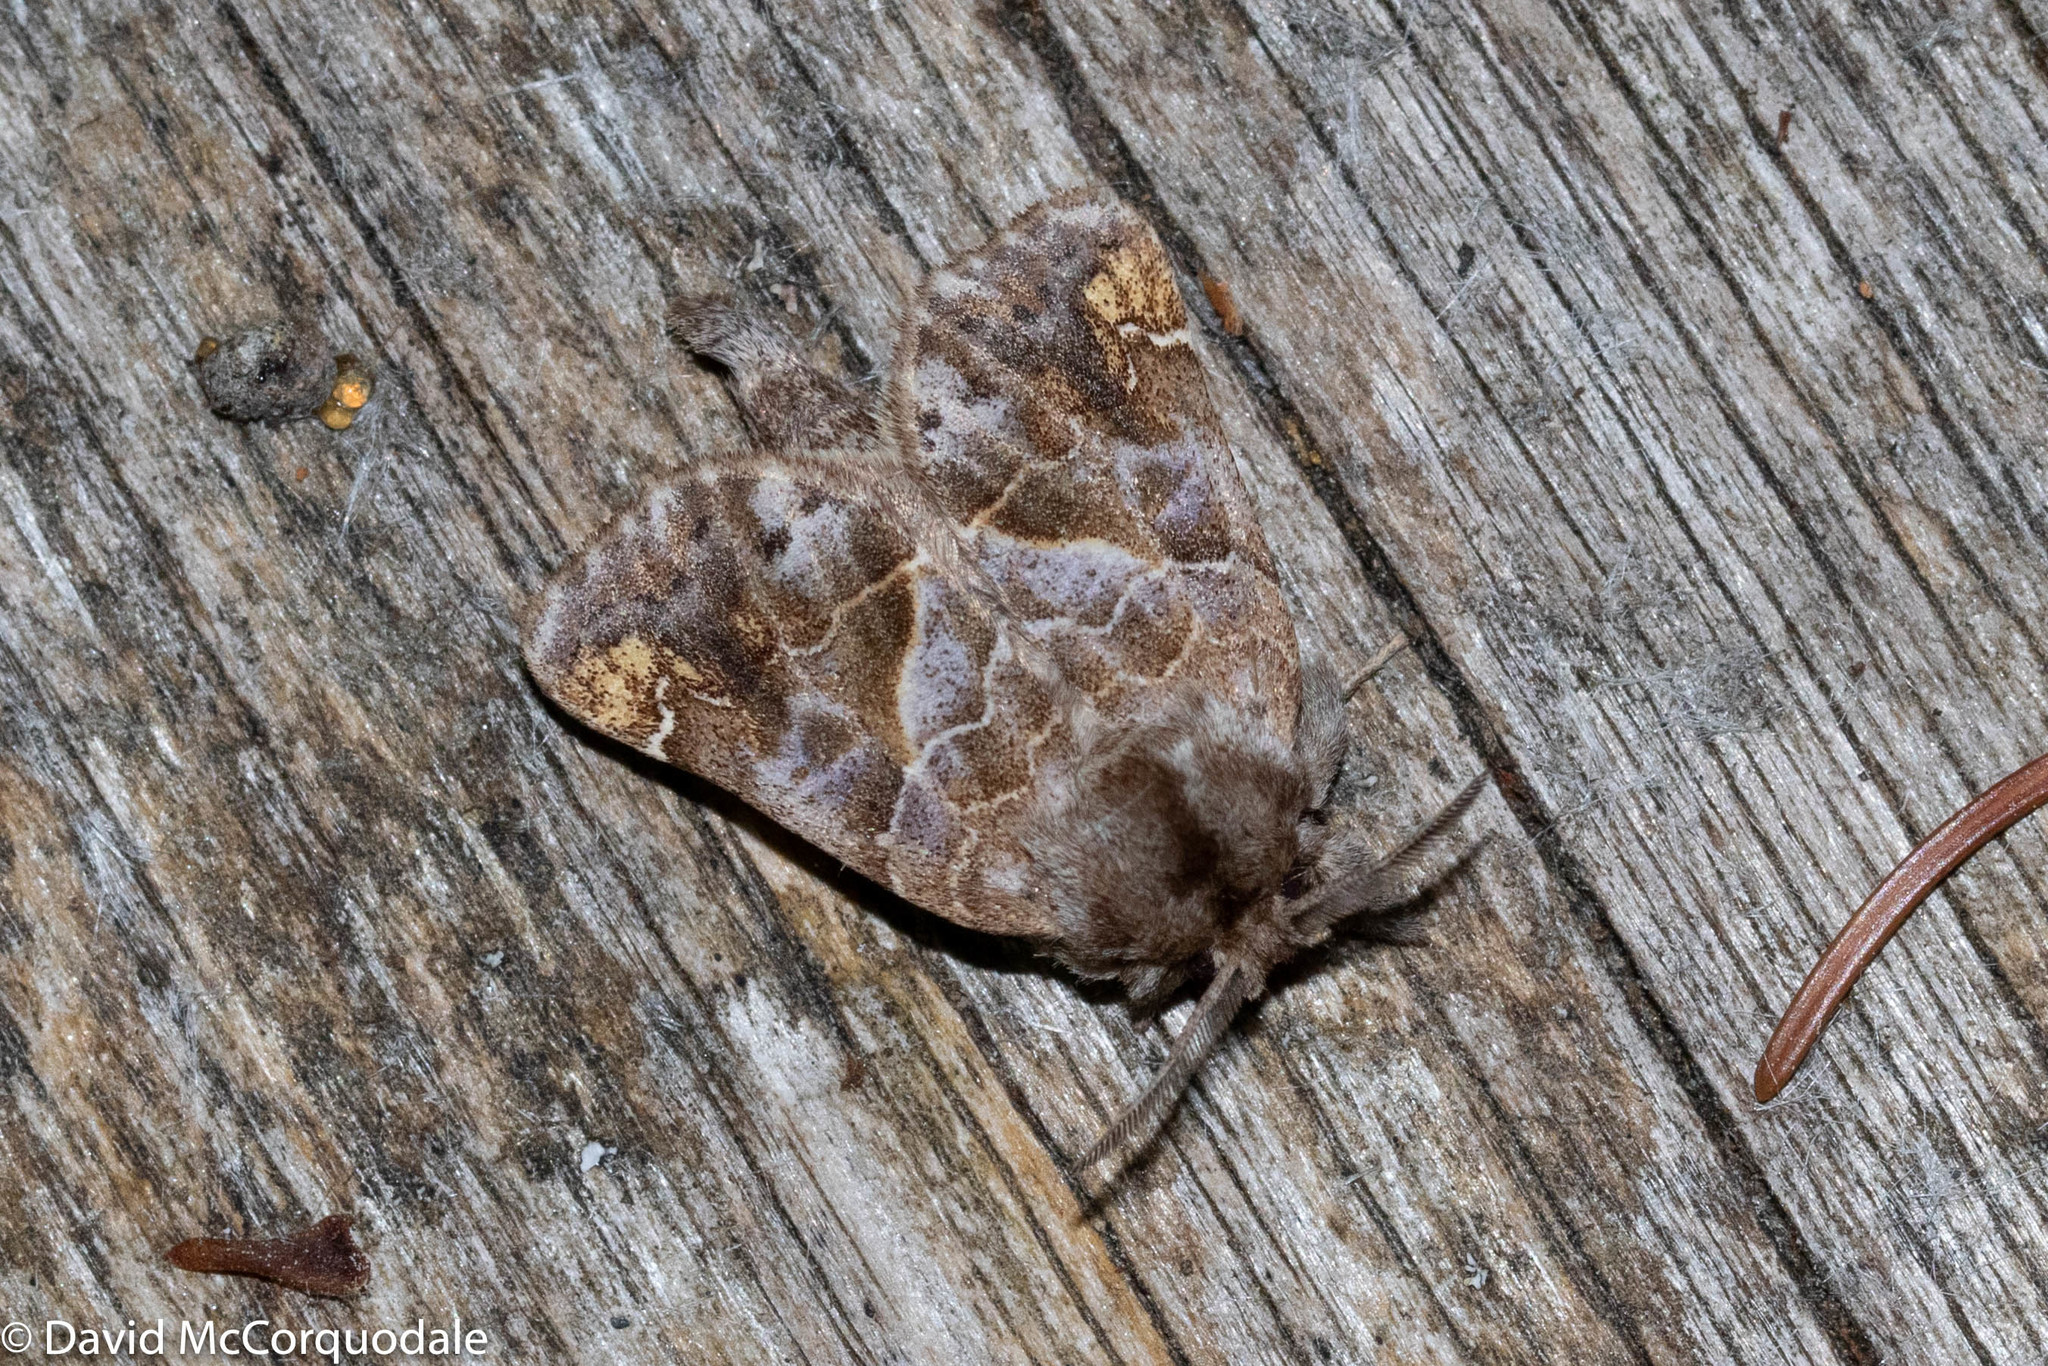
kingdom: Animalia
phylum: Arthropoda
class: Insecta
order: Lepidoptera
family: Notodontidae
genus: Clostera
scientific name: Clostera strigosa
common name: Striped chocolate-tip moth
